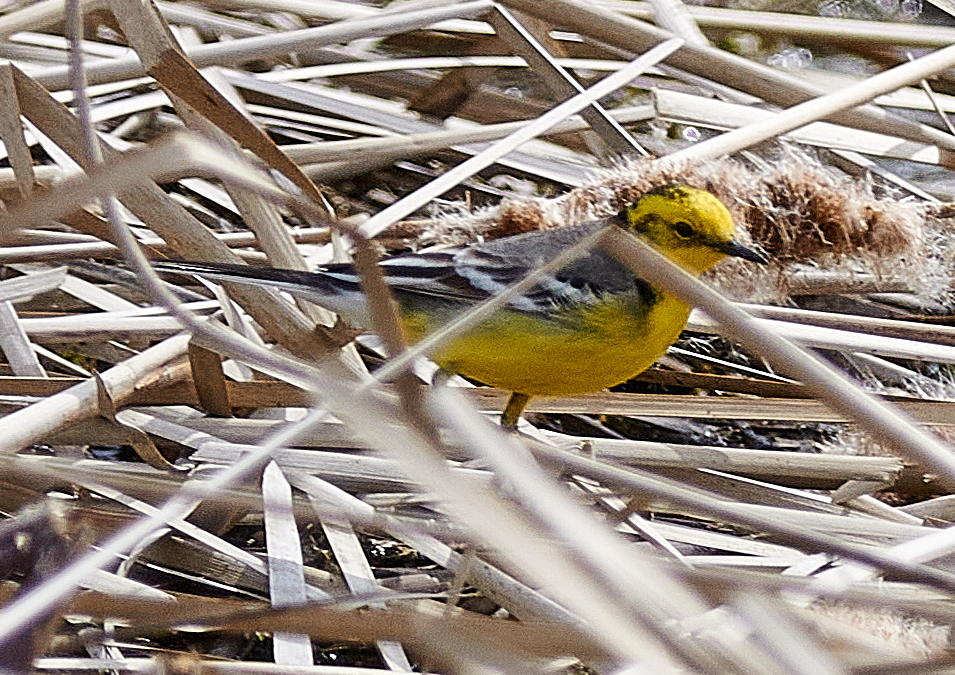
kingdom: Animalia
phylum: Chordata
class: Aves
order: Passeriformes
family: Motacillidae
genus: Motacilla
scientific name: Motacilla citreola
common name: Citrine wagtail
